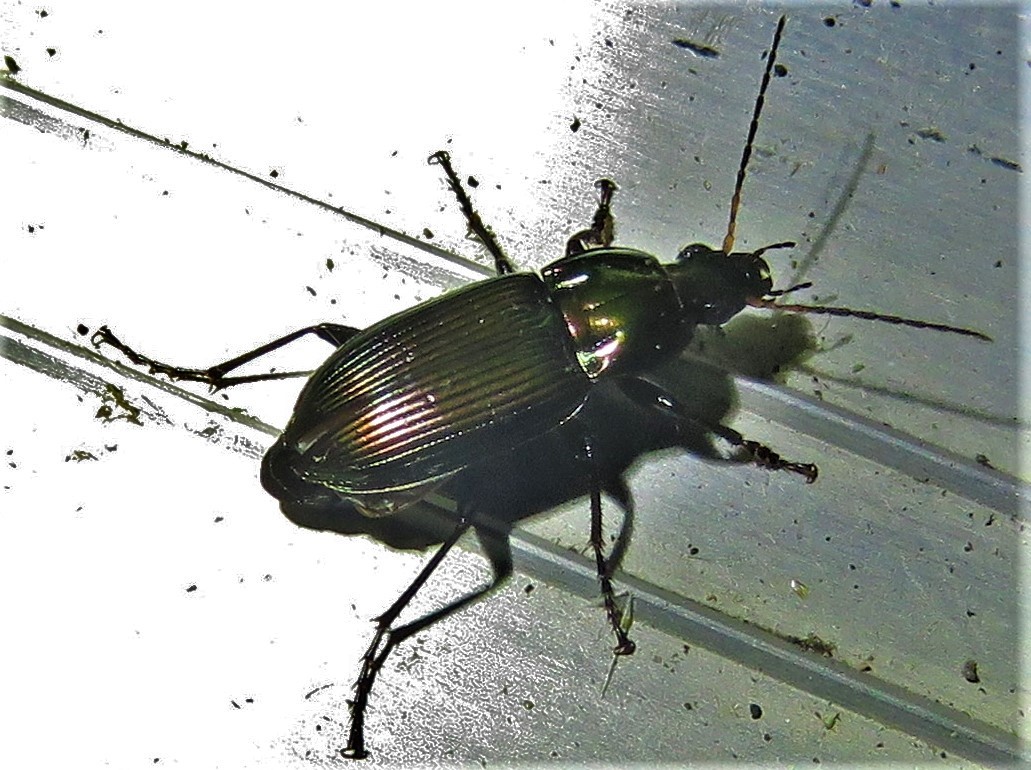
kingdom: Animalia
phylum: Arthropoda
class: Insecta
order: Coleoptera
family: Carabidae
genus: Poecilus
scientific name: Poecilus chalcites
